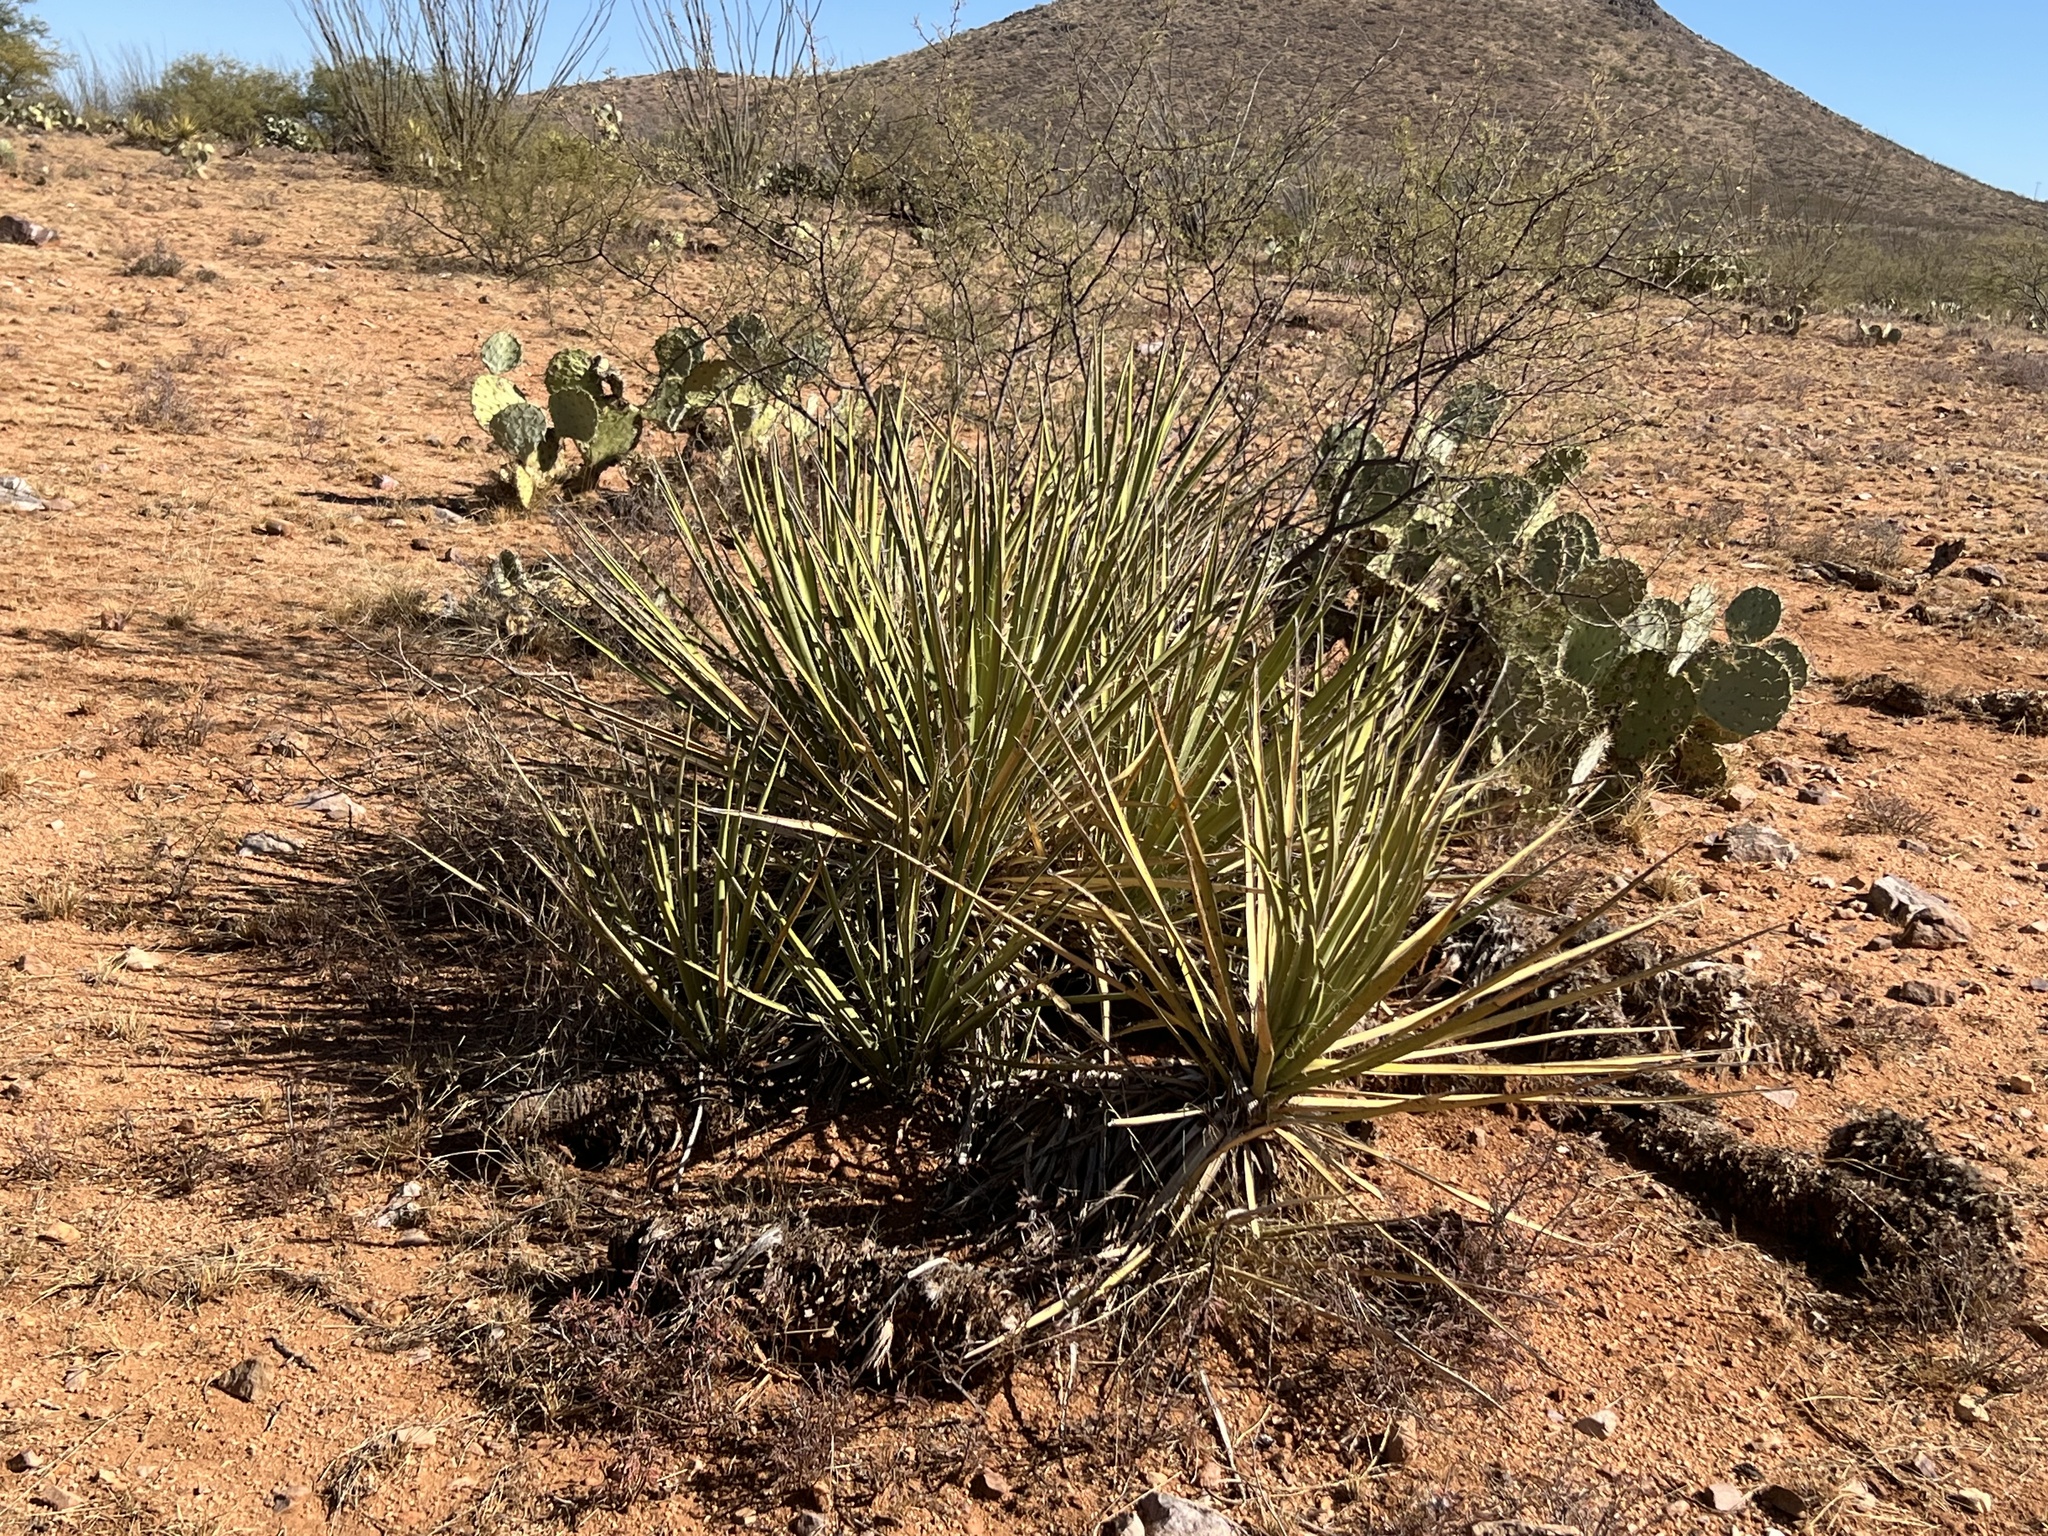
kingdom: Plantae
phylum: Tracheophyta
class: Liliopsida
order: Asparagales
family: Asparagaceae
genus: Yucca
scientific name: Yucca baccata
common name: Banana yucca
